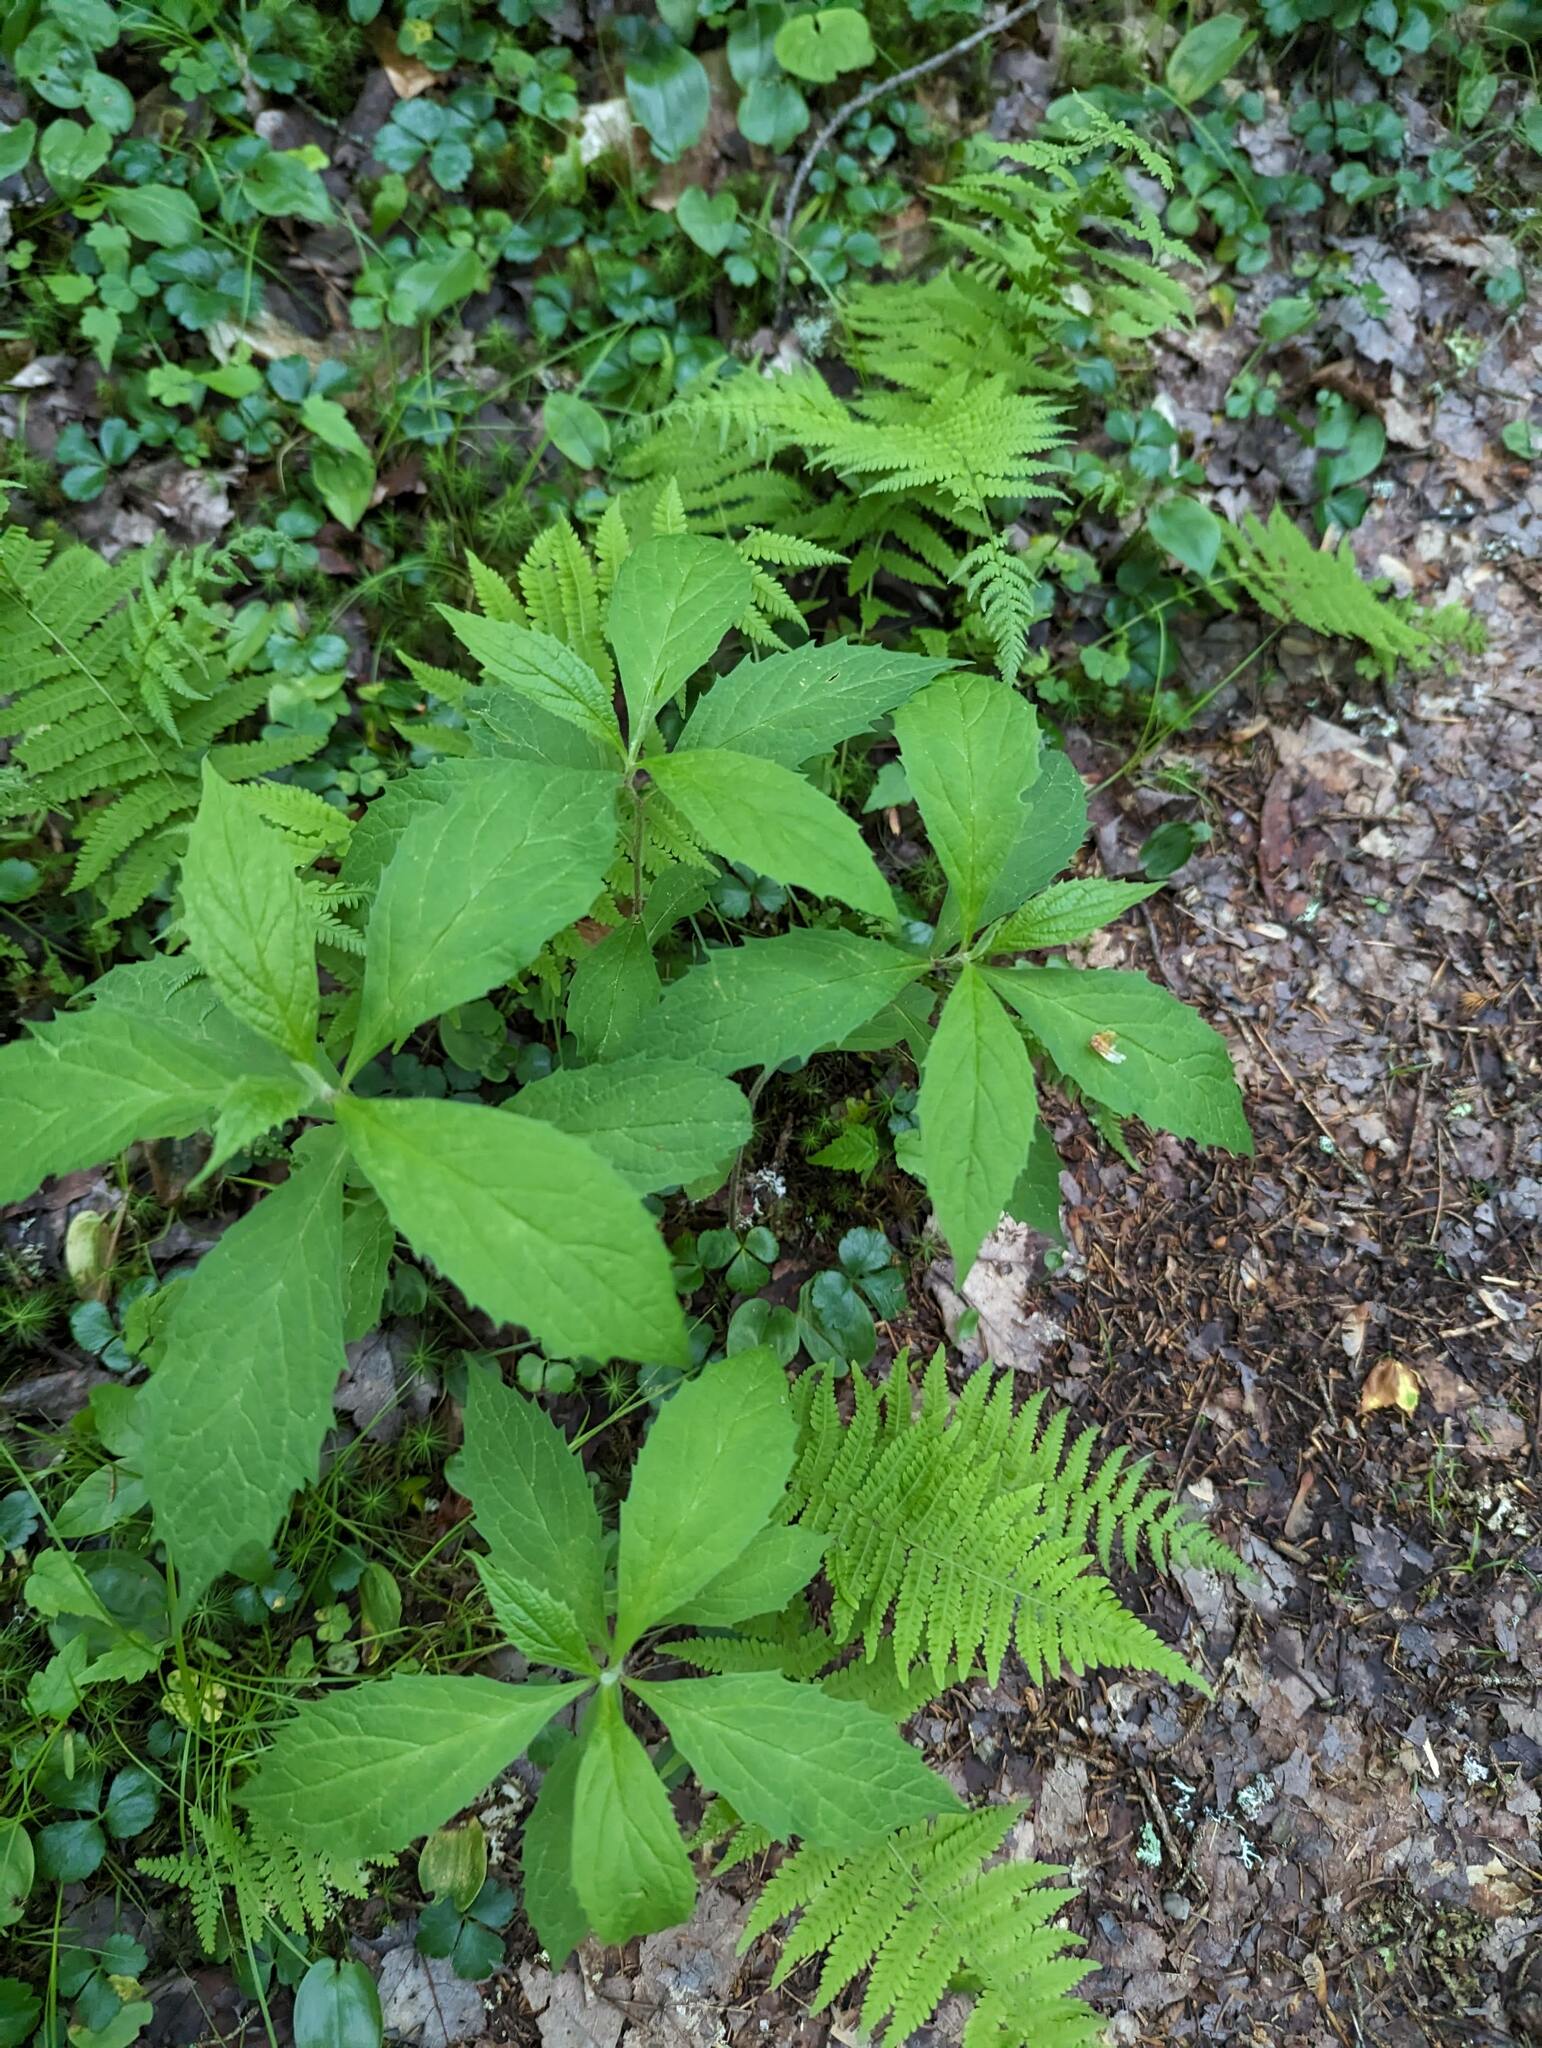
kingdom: Plantae
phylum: Tracheophyta
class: Magnoliopsida
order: Asterales
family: Asteraceae
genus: Oclemena
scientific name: Oclemena acuminata
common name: Mountain aster
